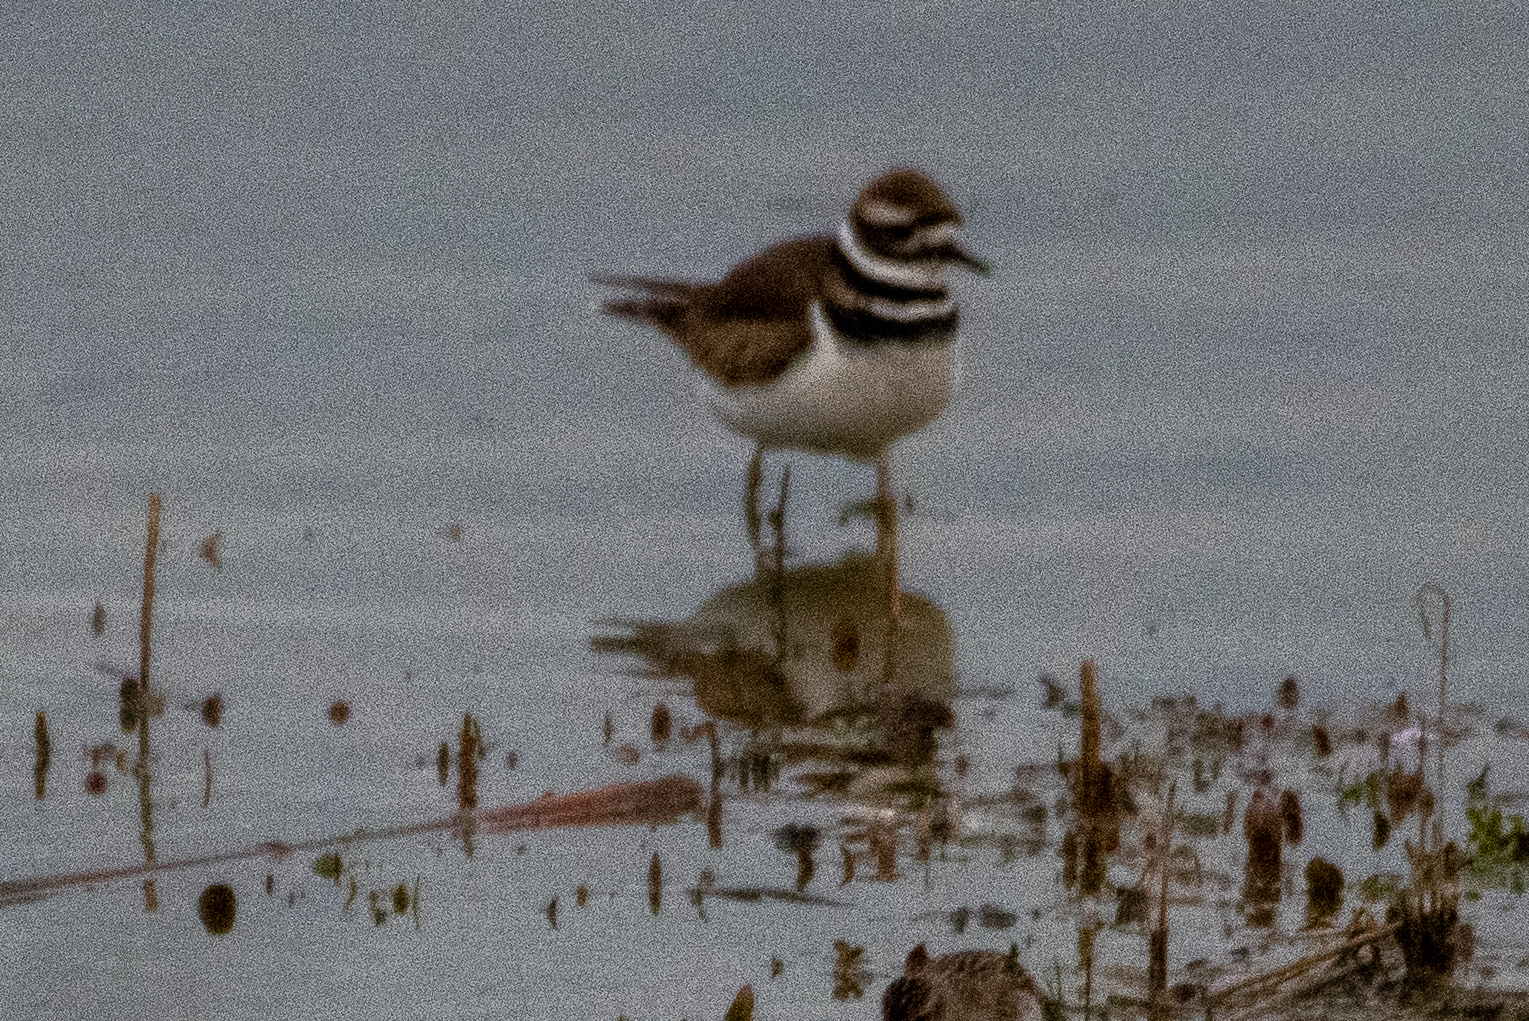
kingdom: Animalia
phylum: Chordata
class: Aves
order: Charadriiformes
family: Charadriidae
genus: Charadrius
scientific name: Charadrius vociferus
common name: Killdeer
